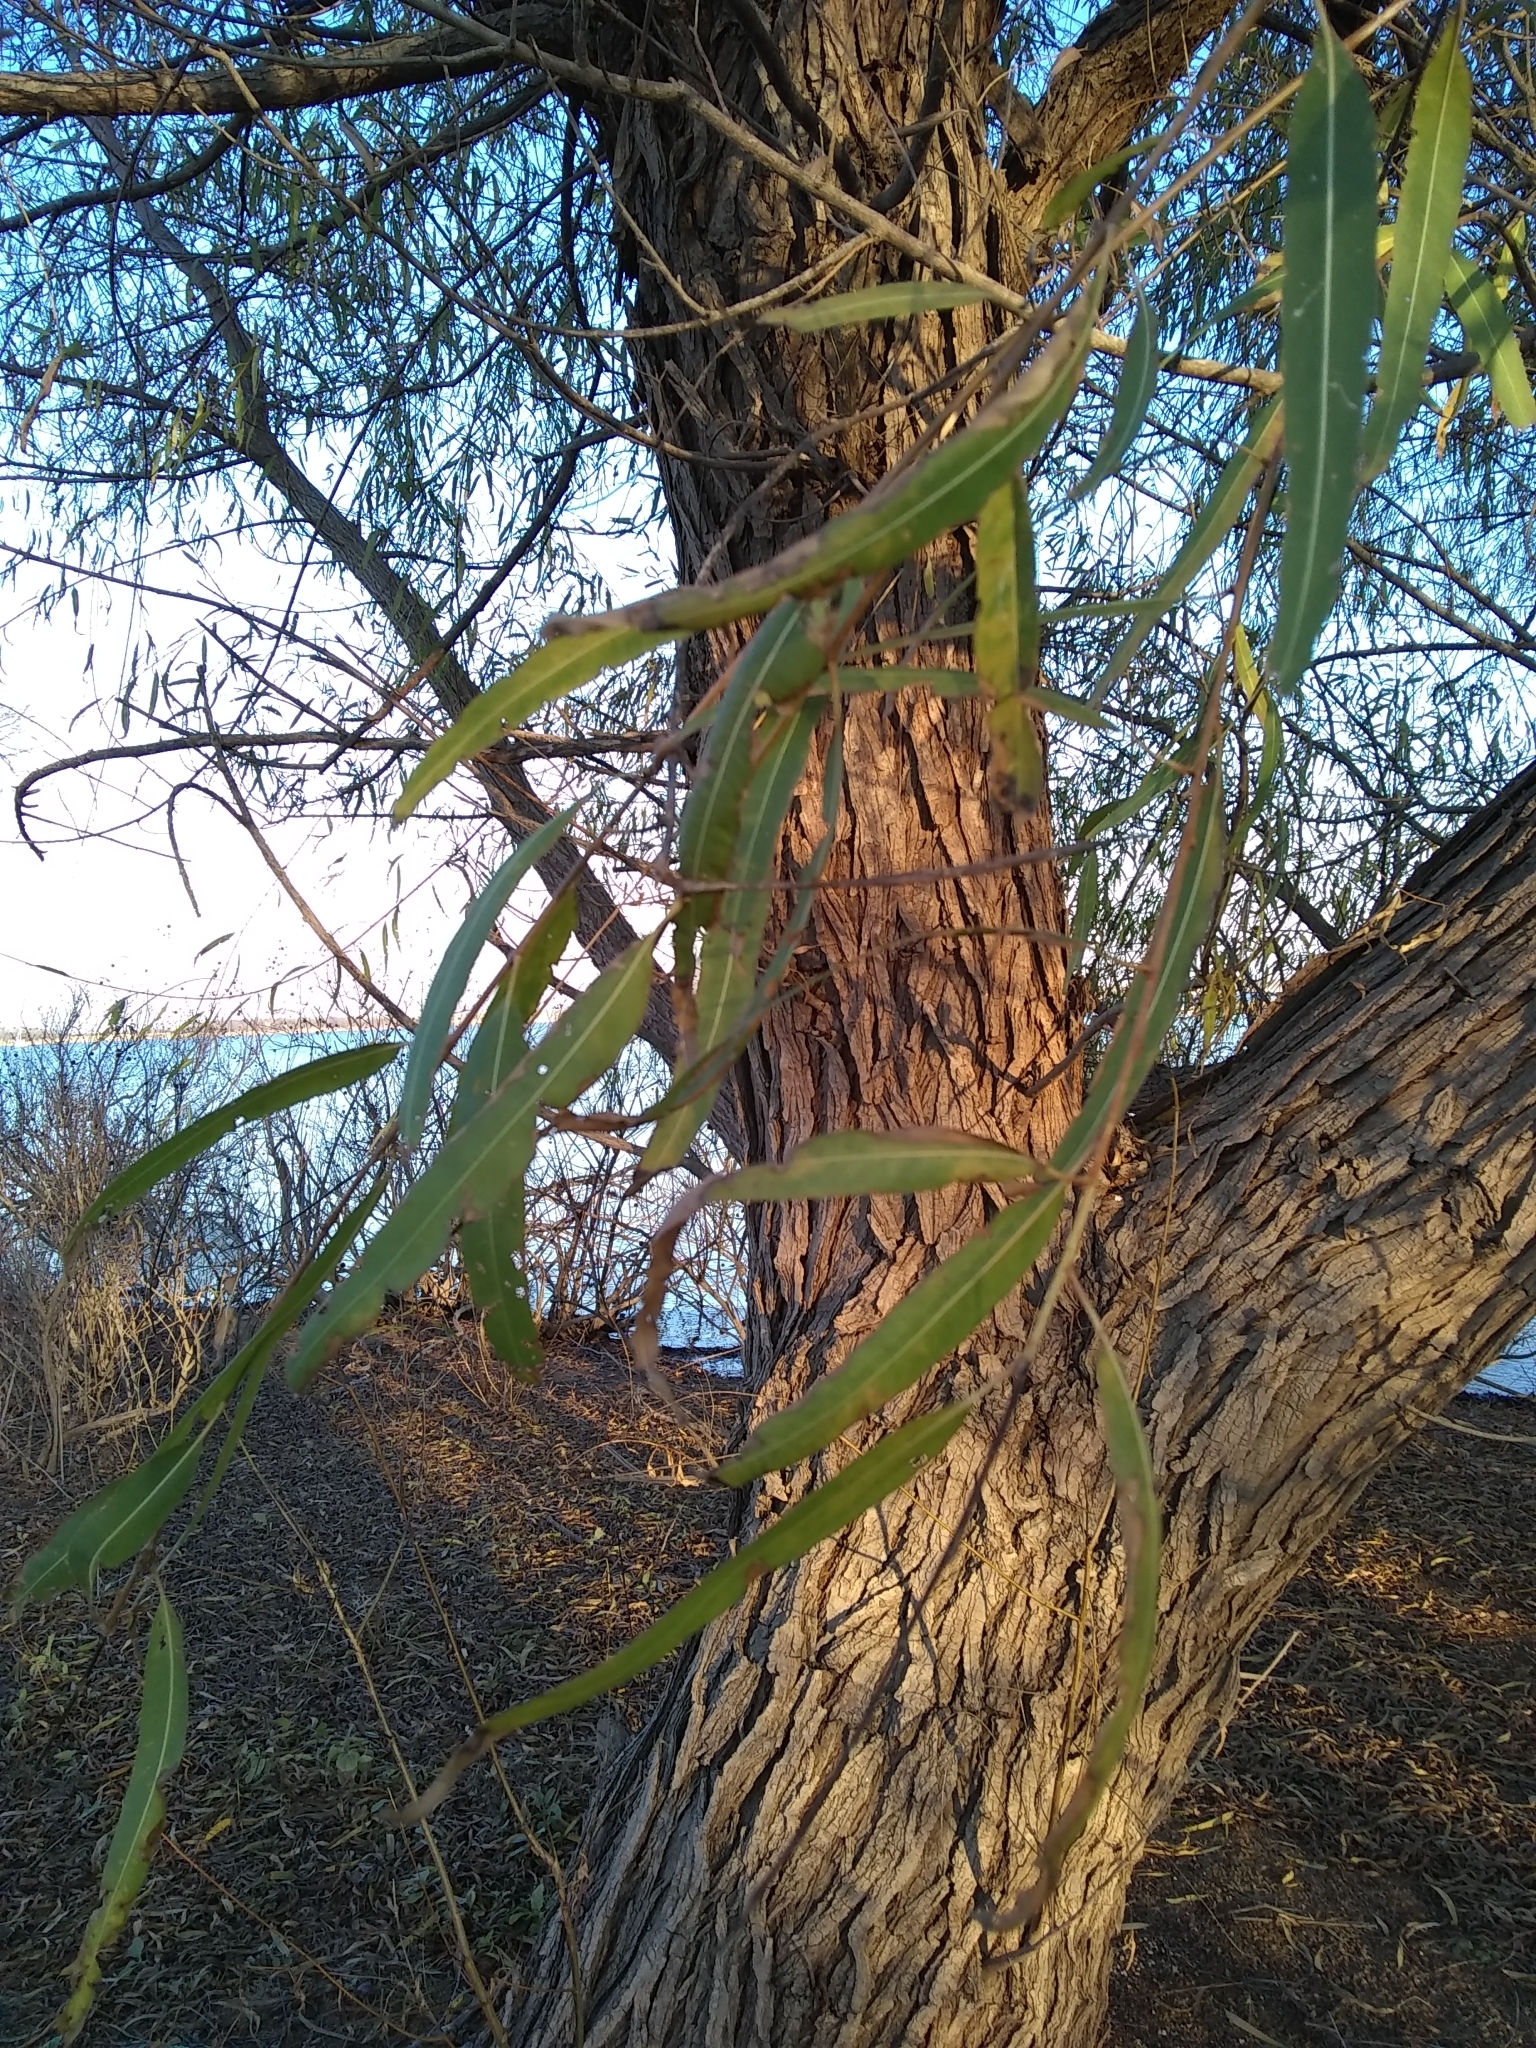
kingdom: Plantae
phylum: Tracheophyta
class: Magnoliopsida
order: Malpighiales
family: Salicaceae
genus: Salix
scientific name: Salix nigra
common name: Black willow
